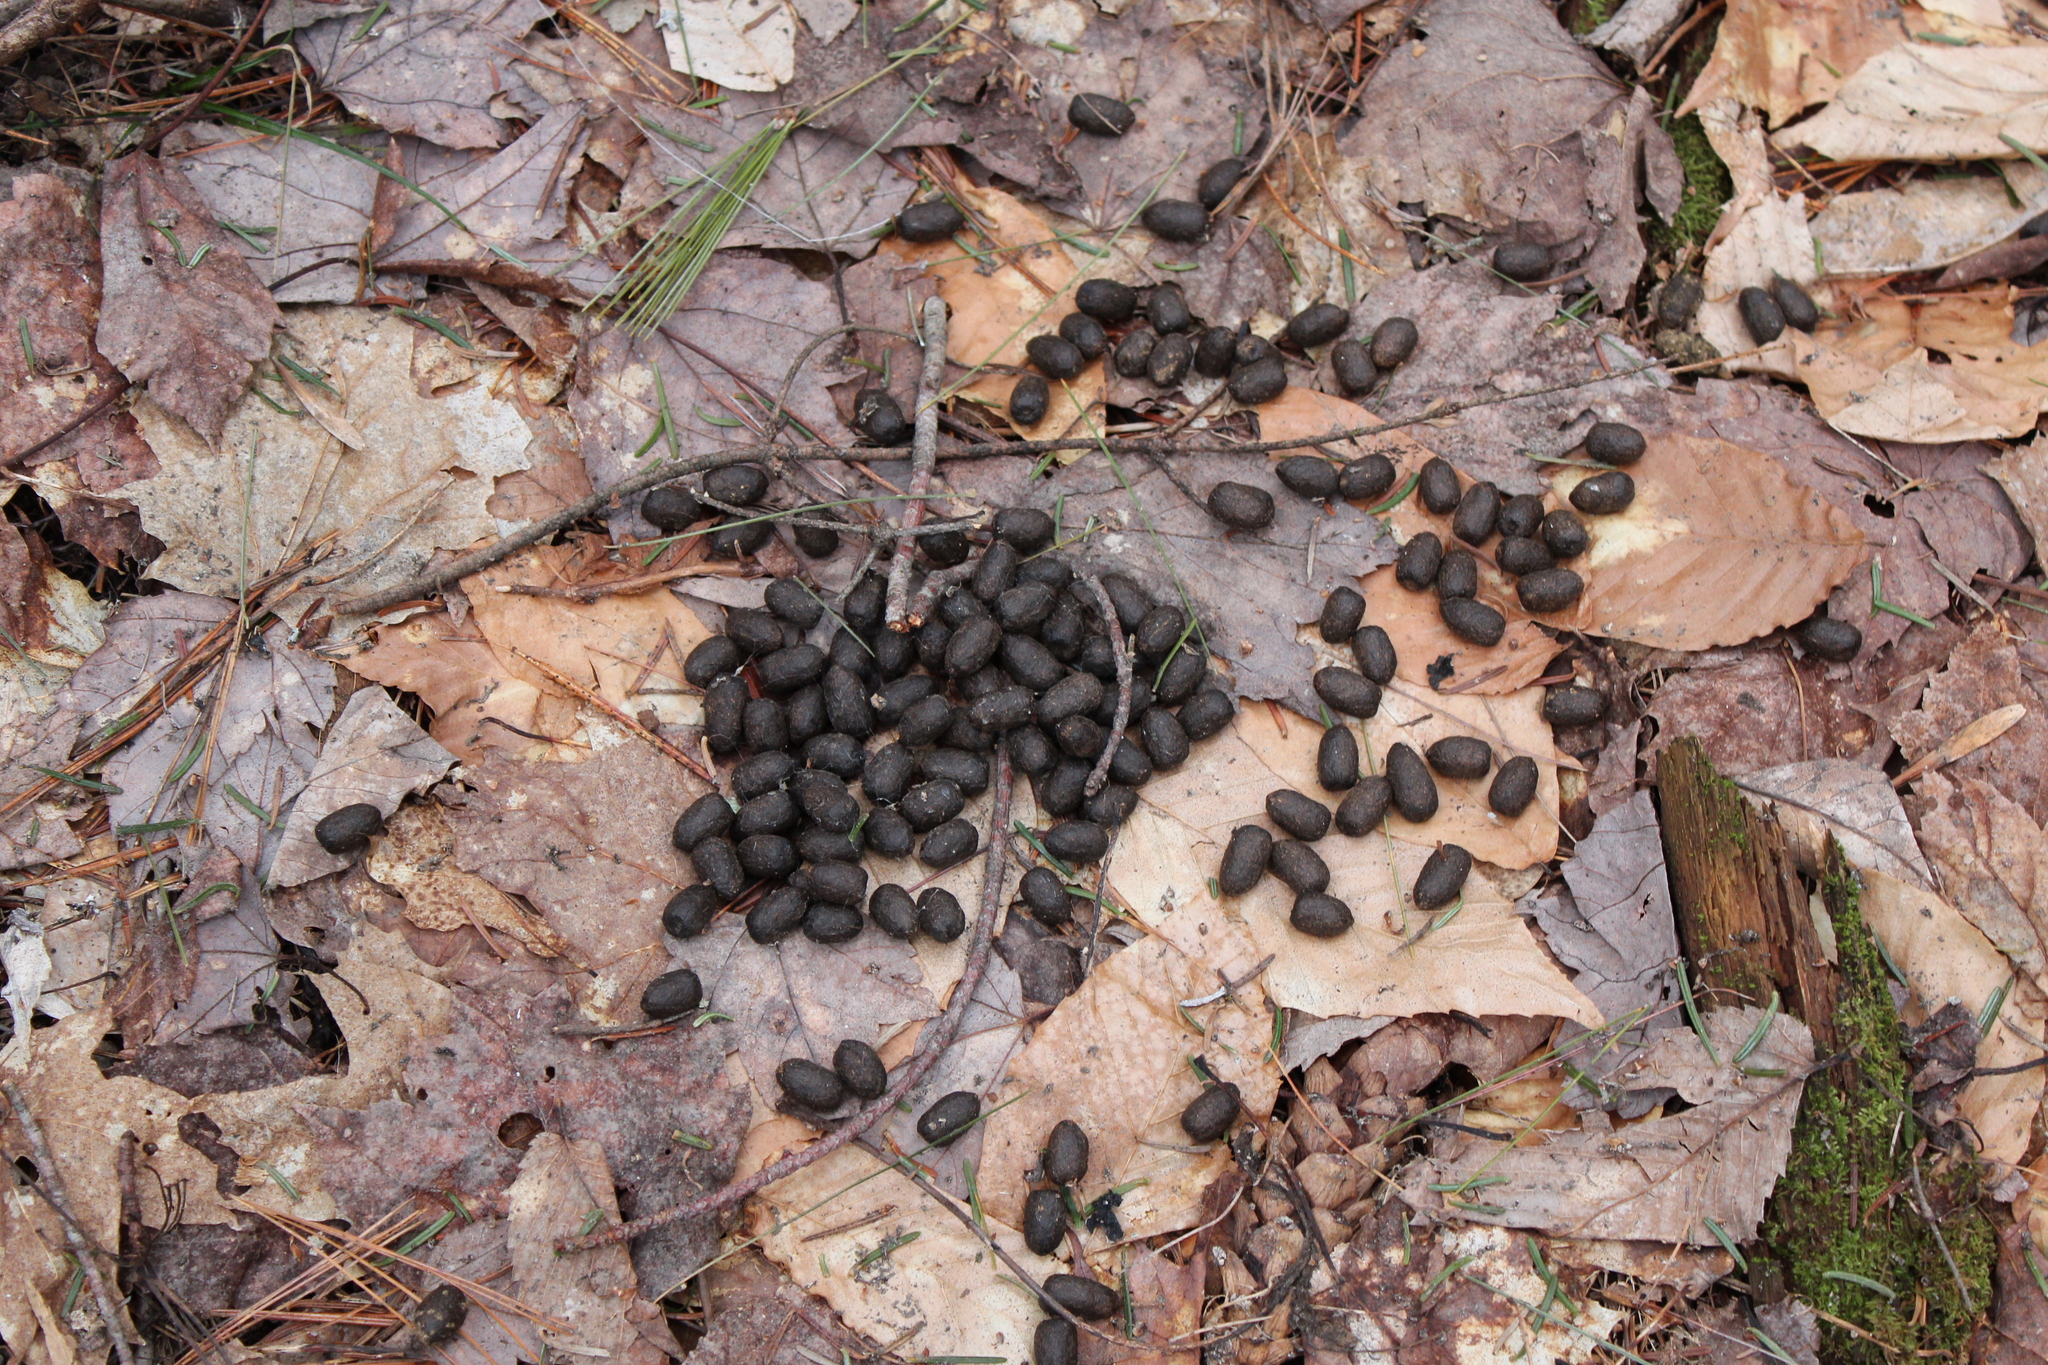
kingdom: Animalia
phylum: Chordata
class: Mammalia
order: Artiodactyla
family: Cervidae
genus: Odocoileus
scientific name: Odocoileus virginianus
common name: White-tailed deer
